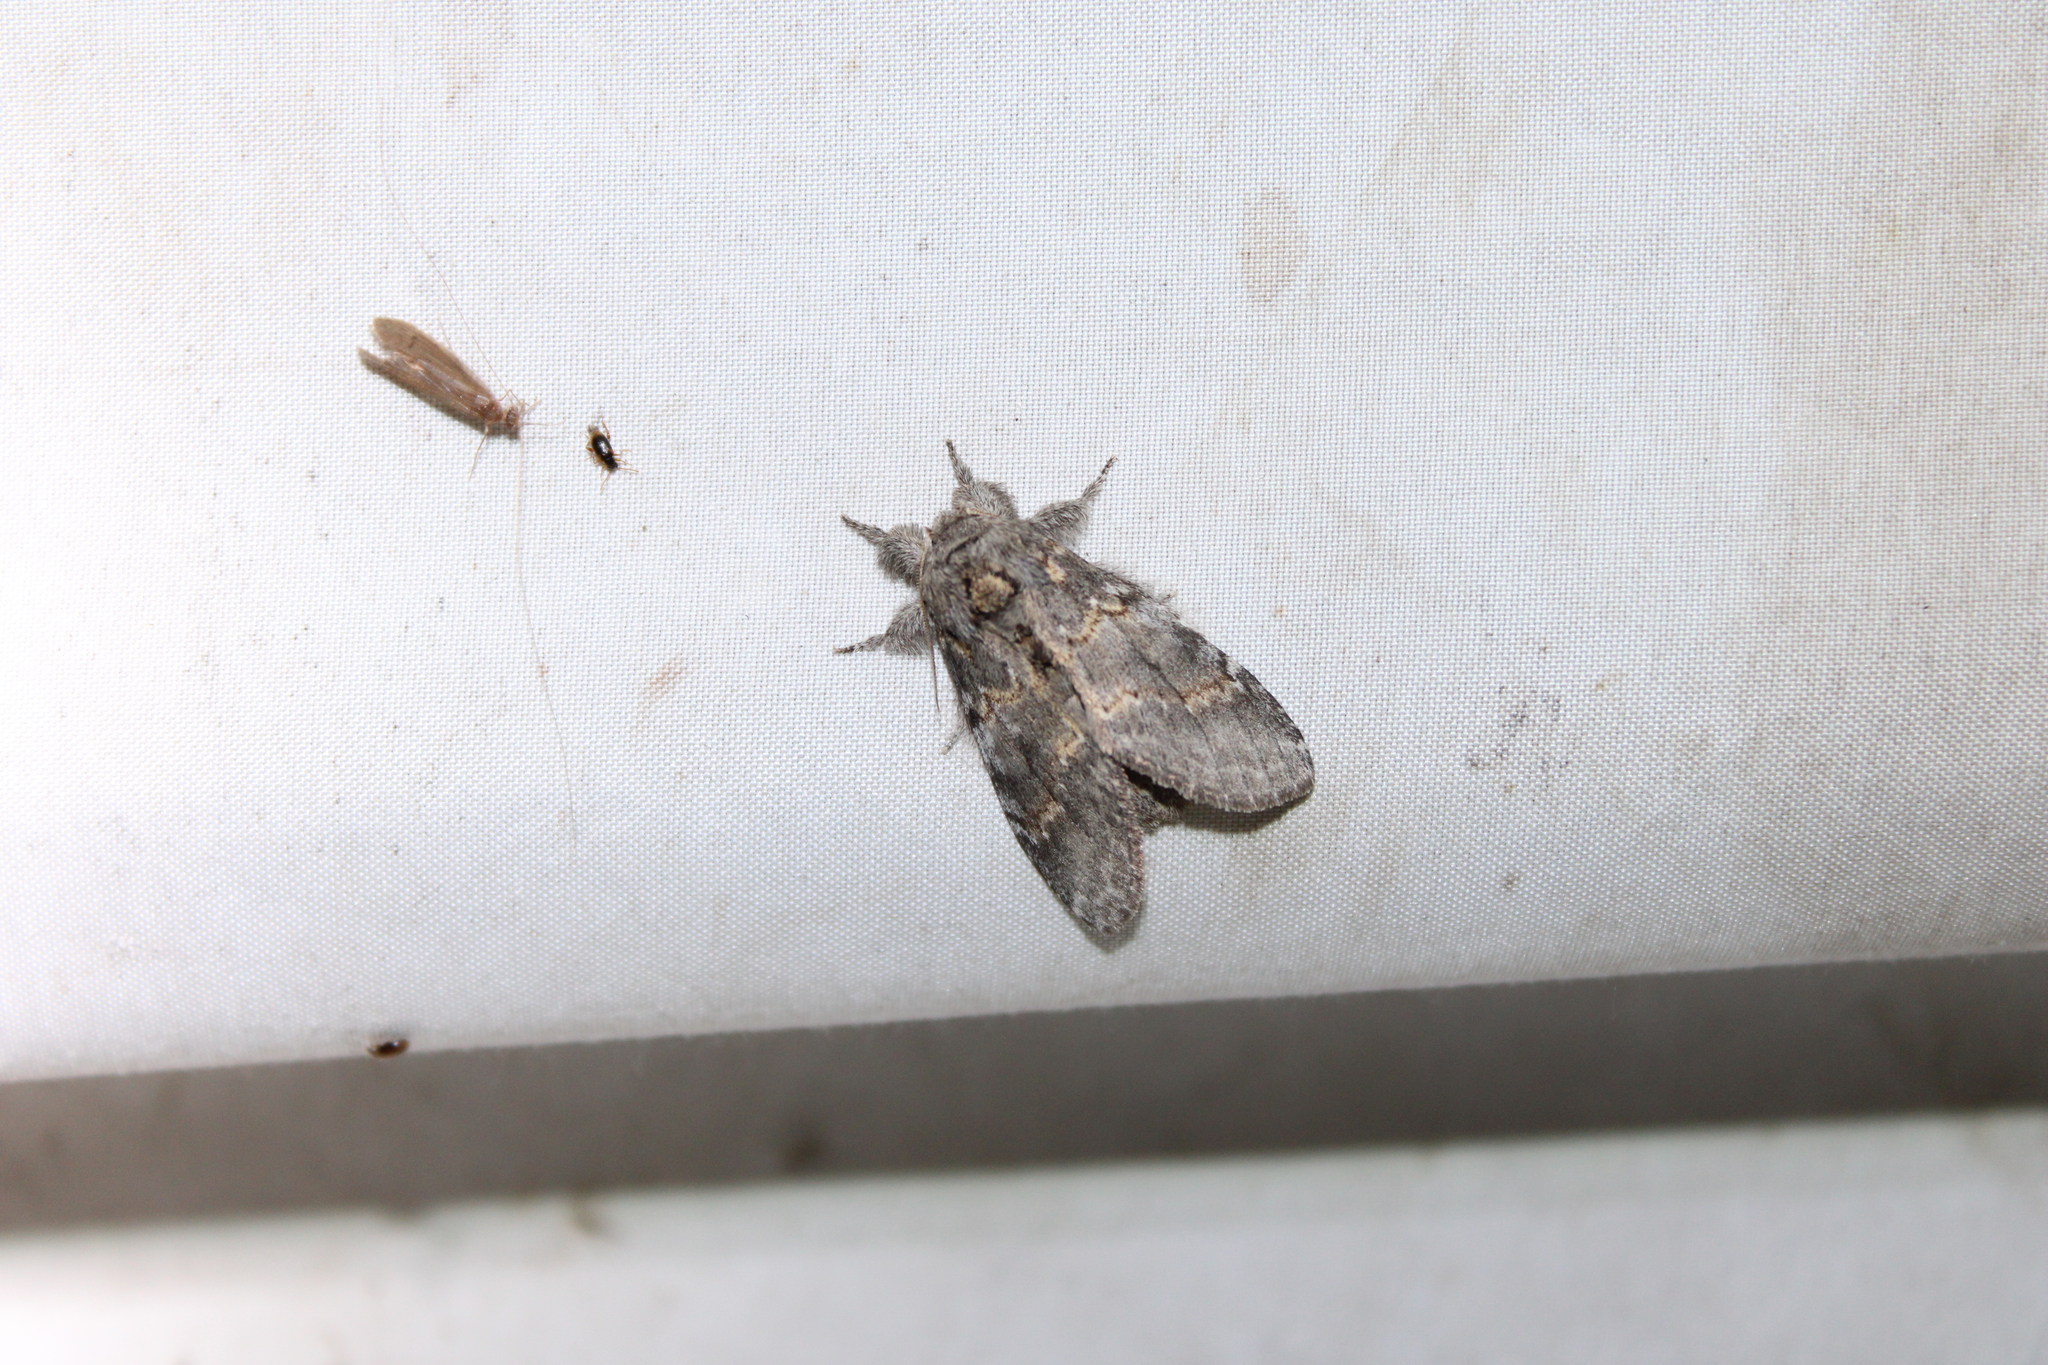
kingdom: Animalia
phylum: Arthropoda
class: Insecta
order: Lepidoptera
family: Notodontidae
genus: Peridea
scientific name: Peridea angulosa
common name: Angulose prominent
